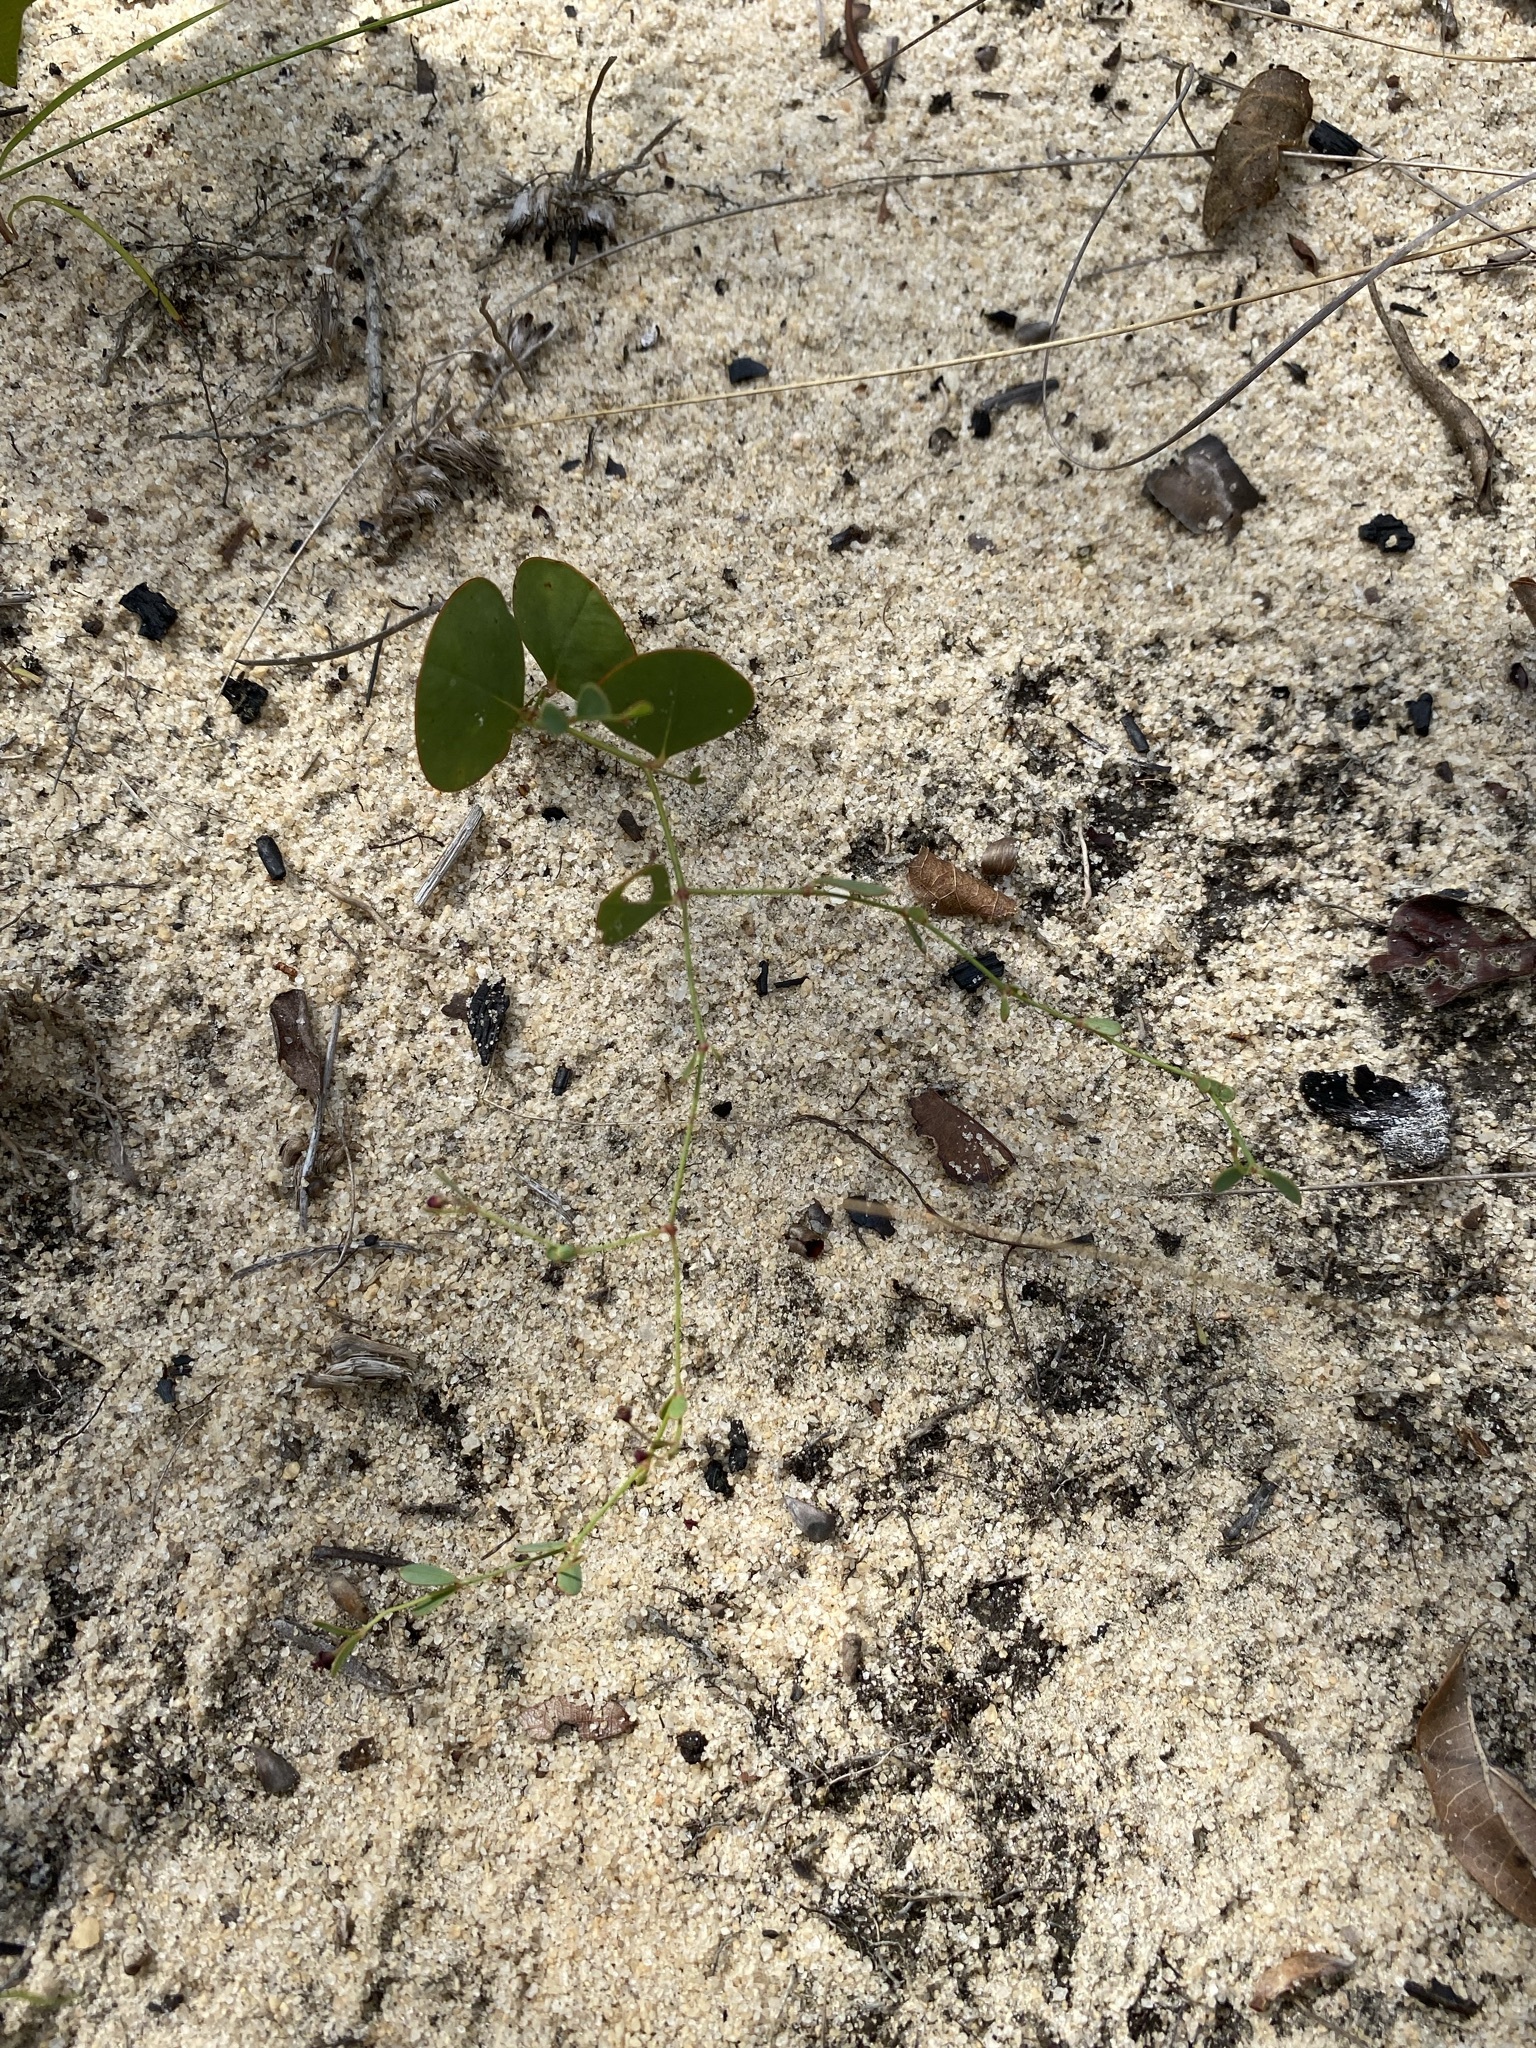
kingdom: Plantae
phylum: Tracheophyta
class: Magnoliopsida
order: Malpighiales
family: Euphorbiaceae
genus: Euphorbia
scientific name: Euphorbia exserta
